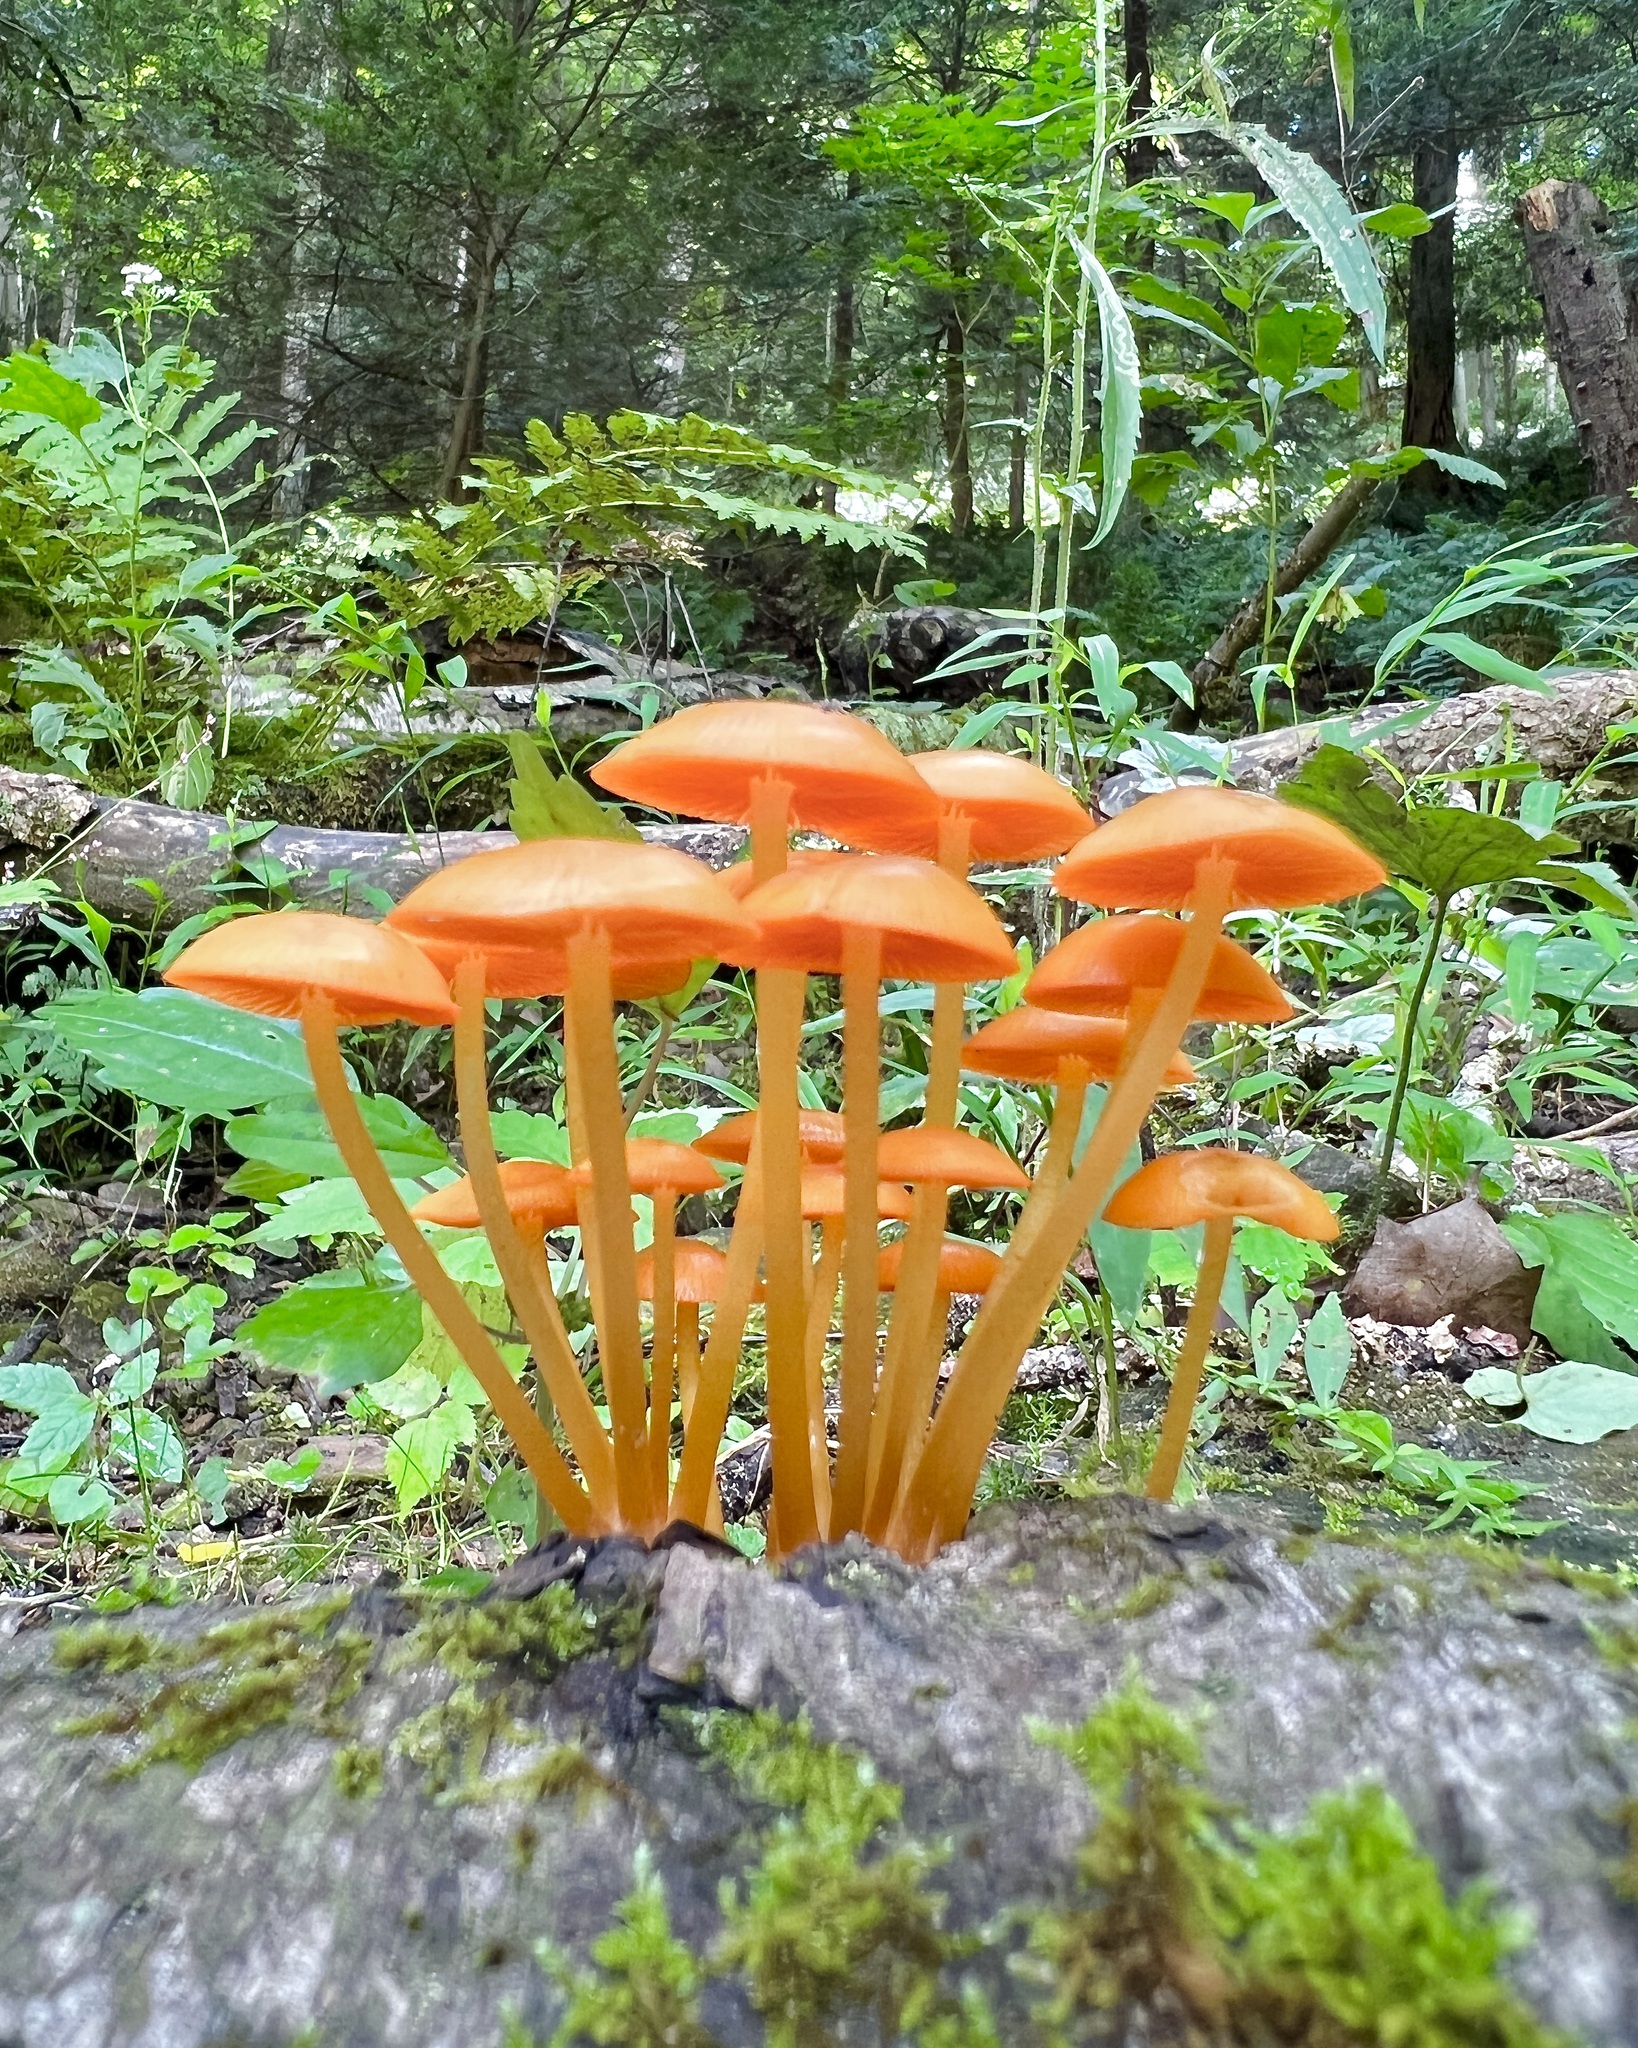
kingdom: Fungi
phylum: Basidiomycota
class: Agaricomycetes
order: Agaricales
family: Mycenaceae
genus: Mycena
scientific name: Mycena leaiana
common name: Orange mycena
